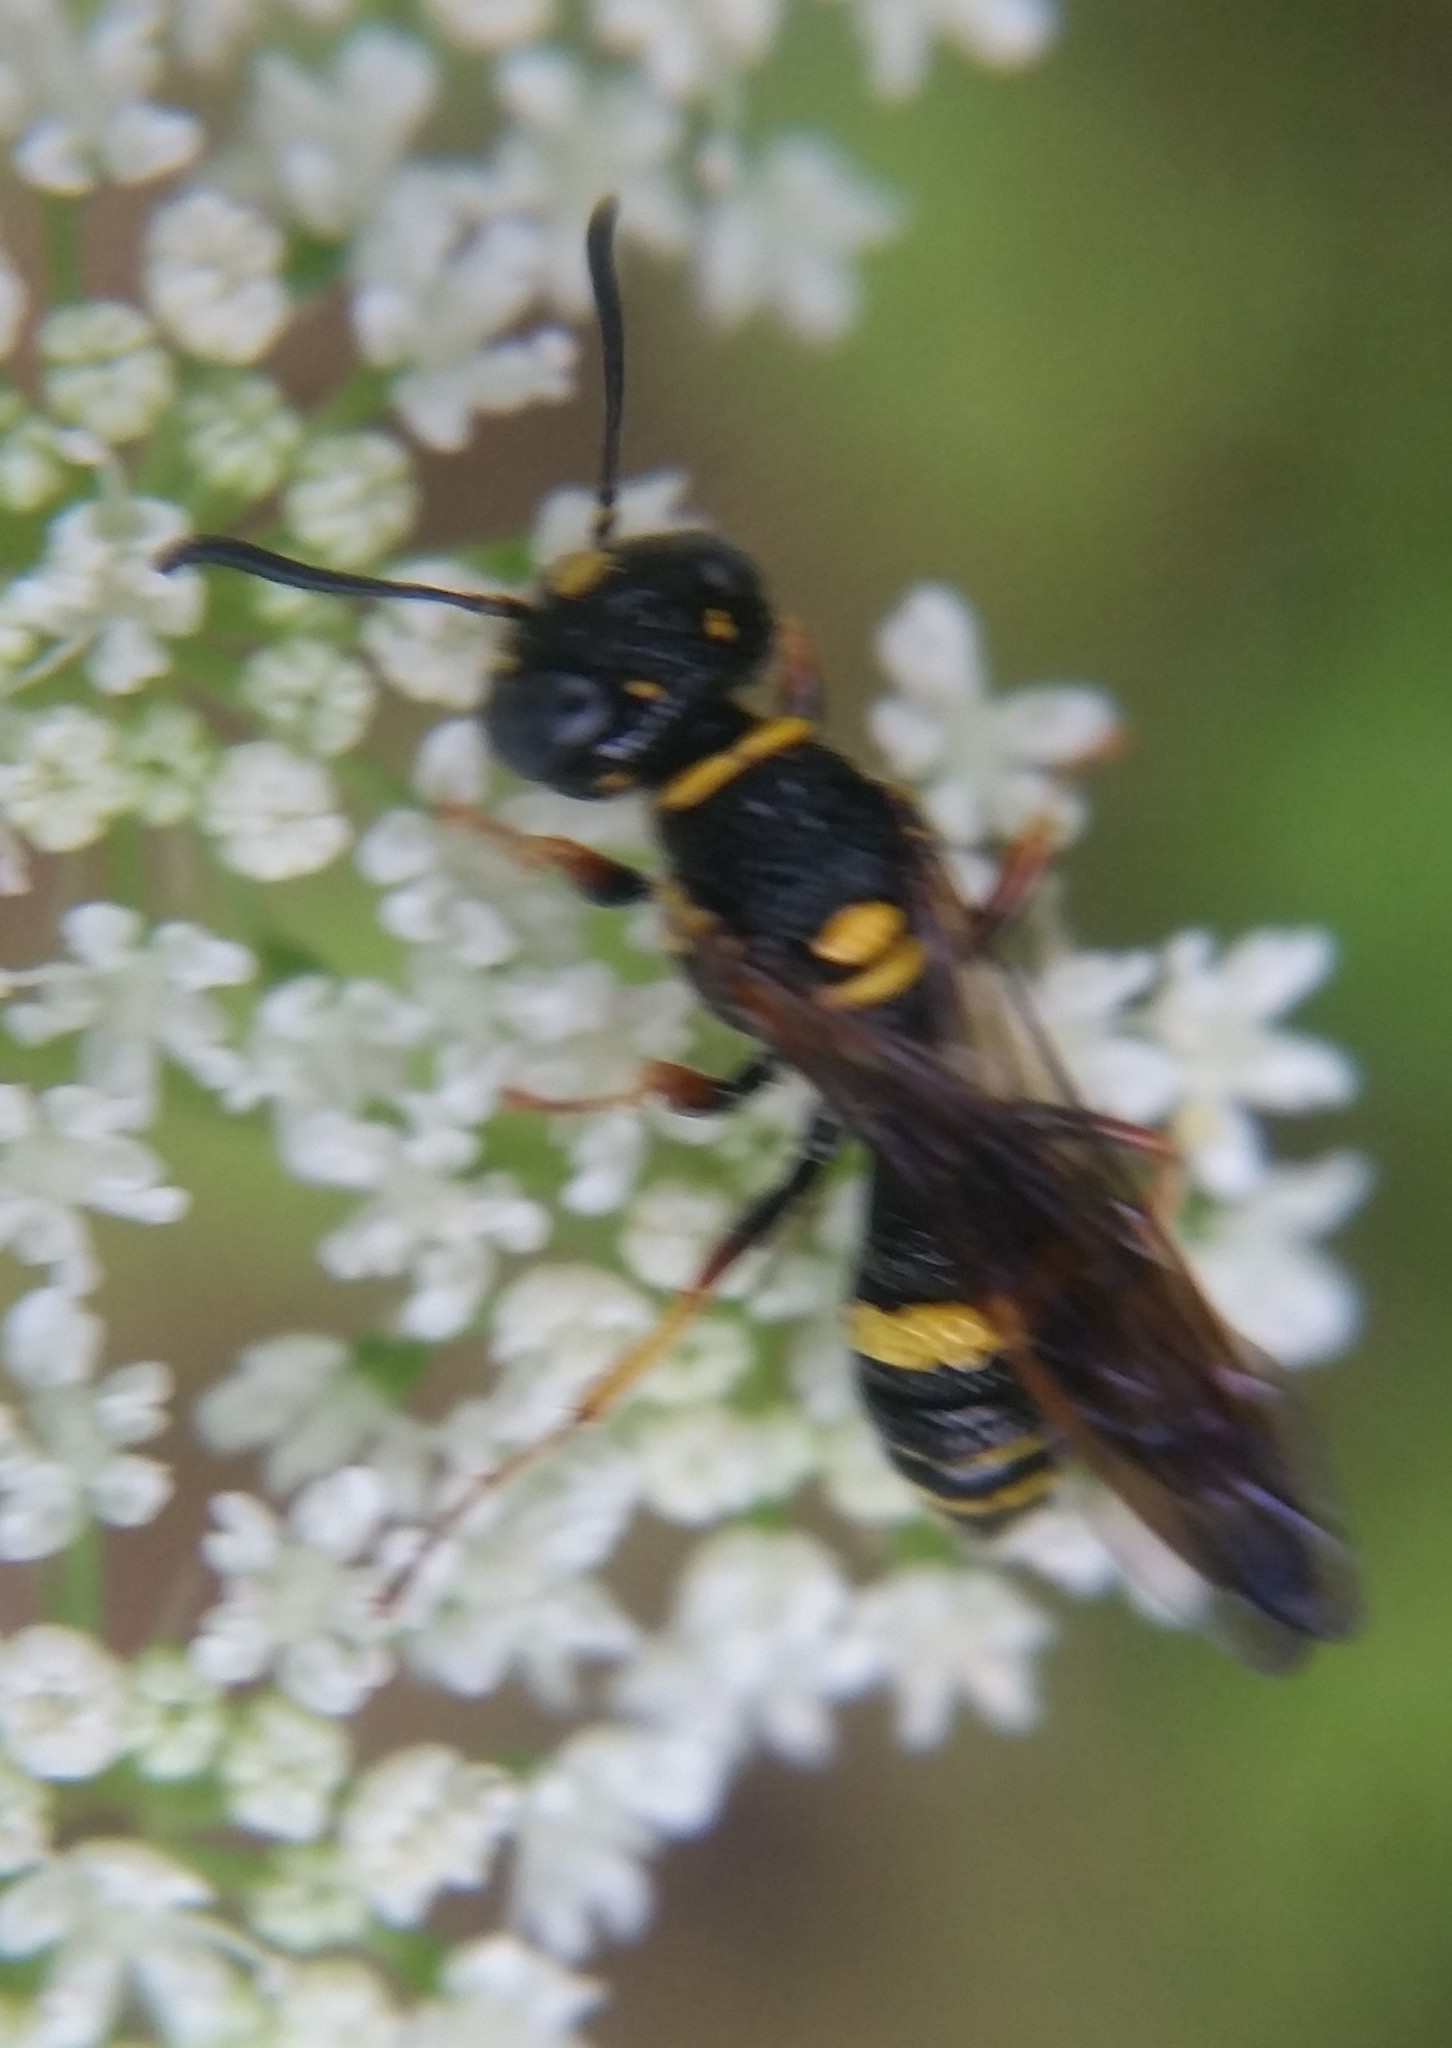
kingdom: Animalia
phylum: Arthropoda
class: Insecta
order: Hymenoptera
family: Crabronidae
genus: Philanthus
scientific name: Philanthus gibbosus
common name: Humped beewolf
